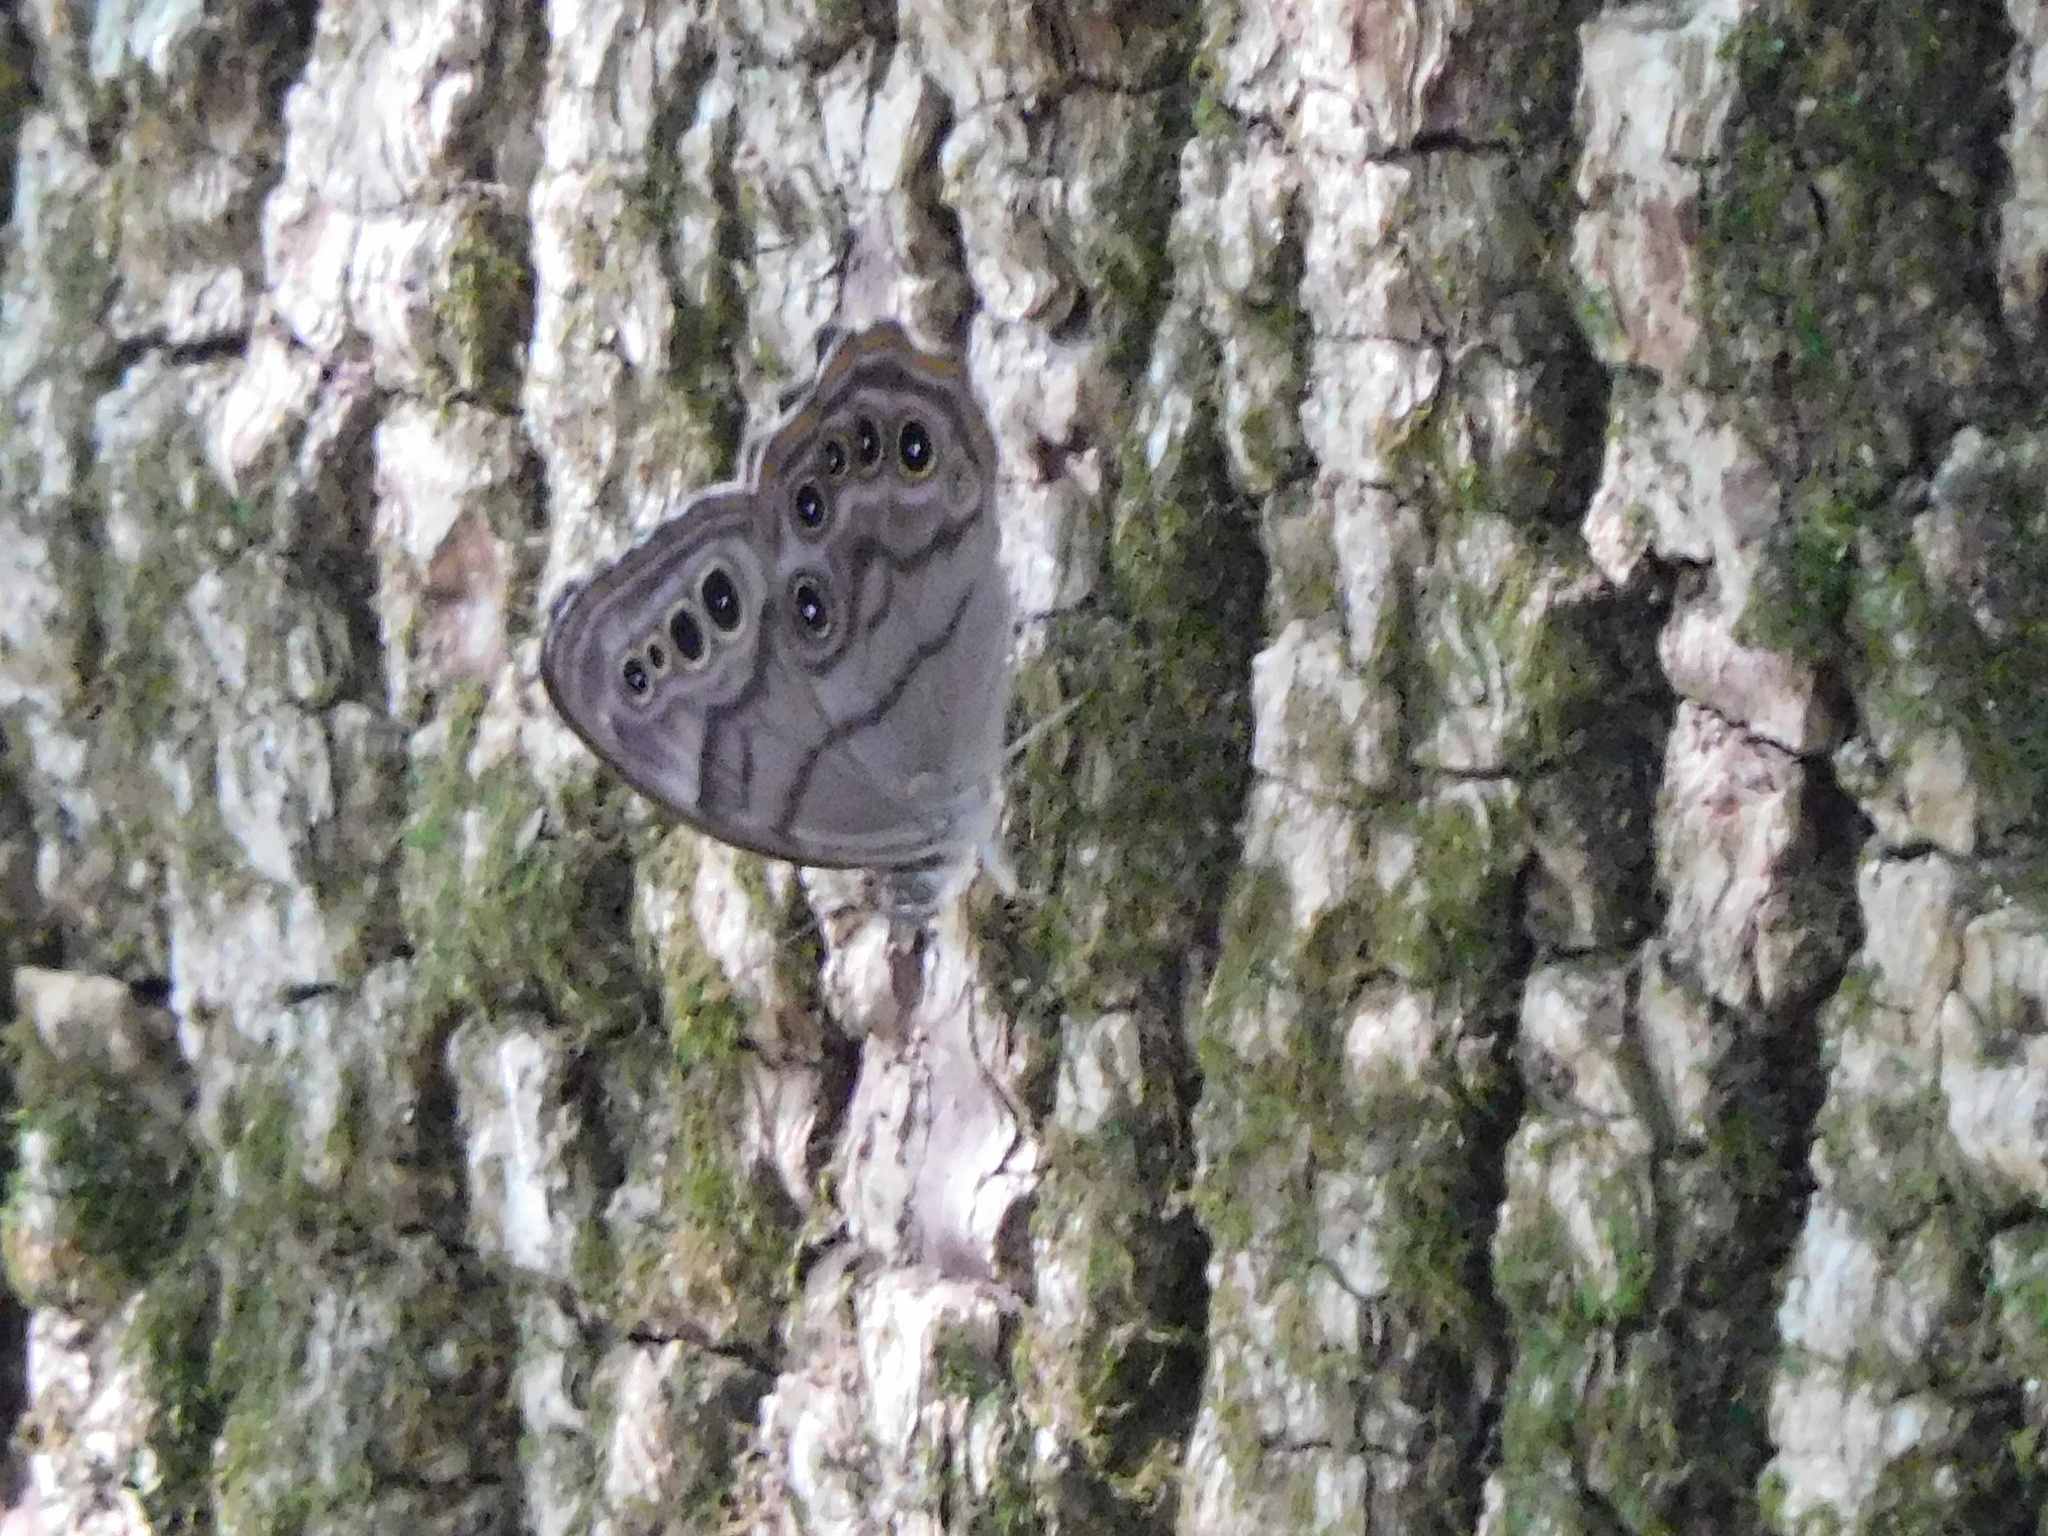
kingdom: Animalia
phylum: Arthropoda
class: Insecta
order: Lepidoptera
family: Nymphalidae
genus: Lethe
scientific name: Lethe anthedon
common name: Northern pearly-eye
